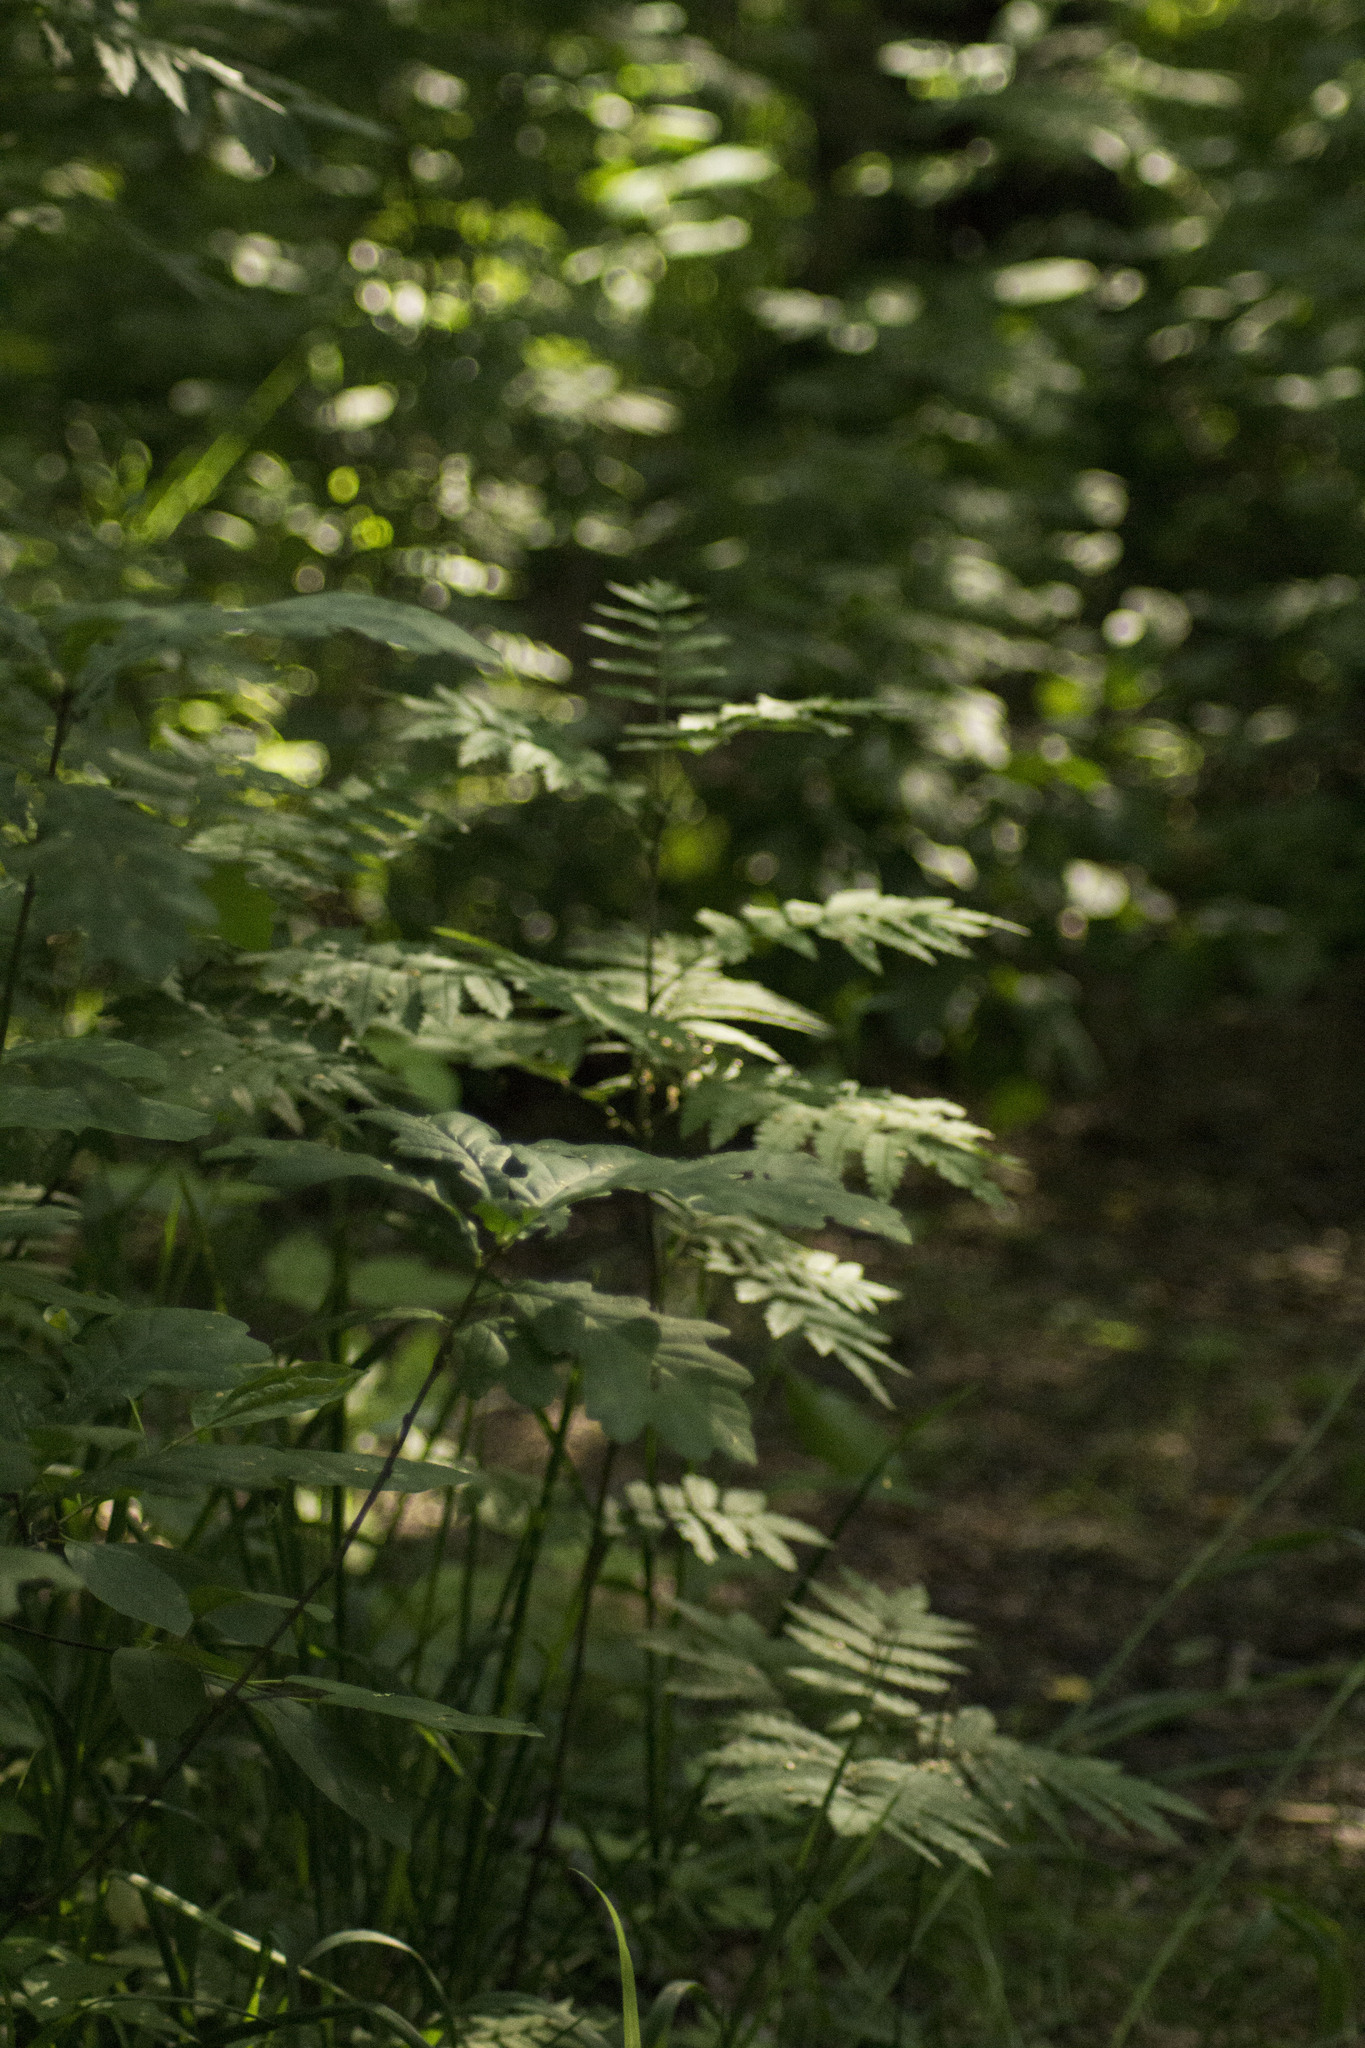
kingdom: Plantae
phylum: Tracheophyta
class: Magnoliopsida
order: Rosales
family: Rosaceae
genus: Sorbus
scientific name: Sorbus aucuparia
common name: Rowan
